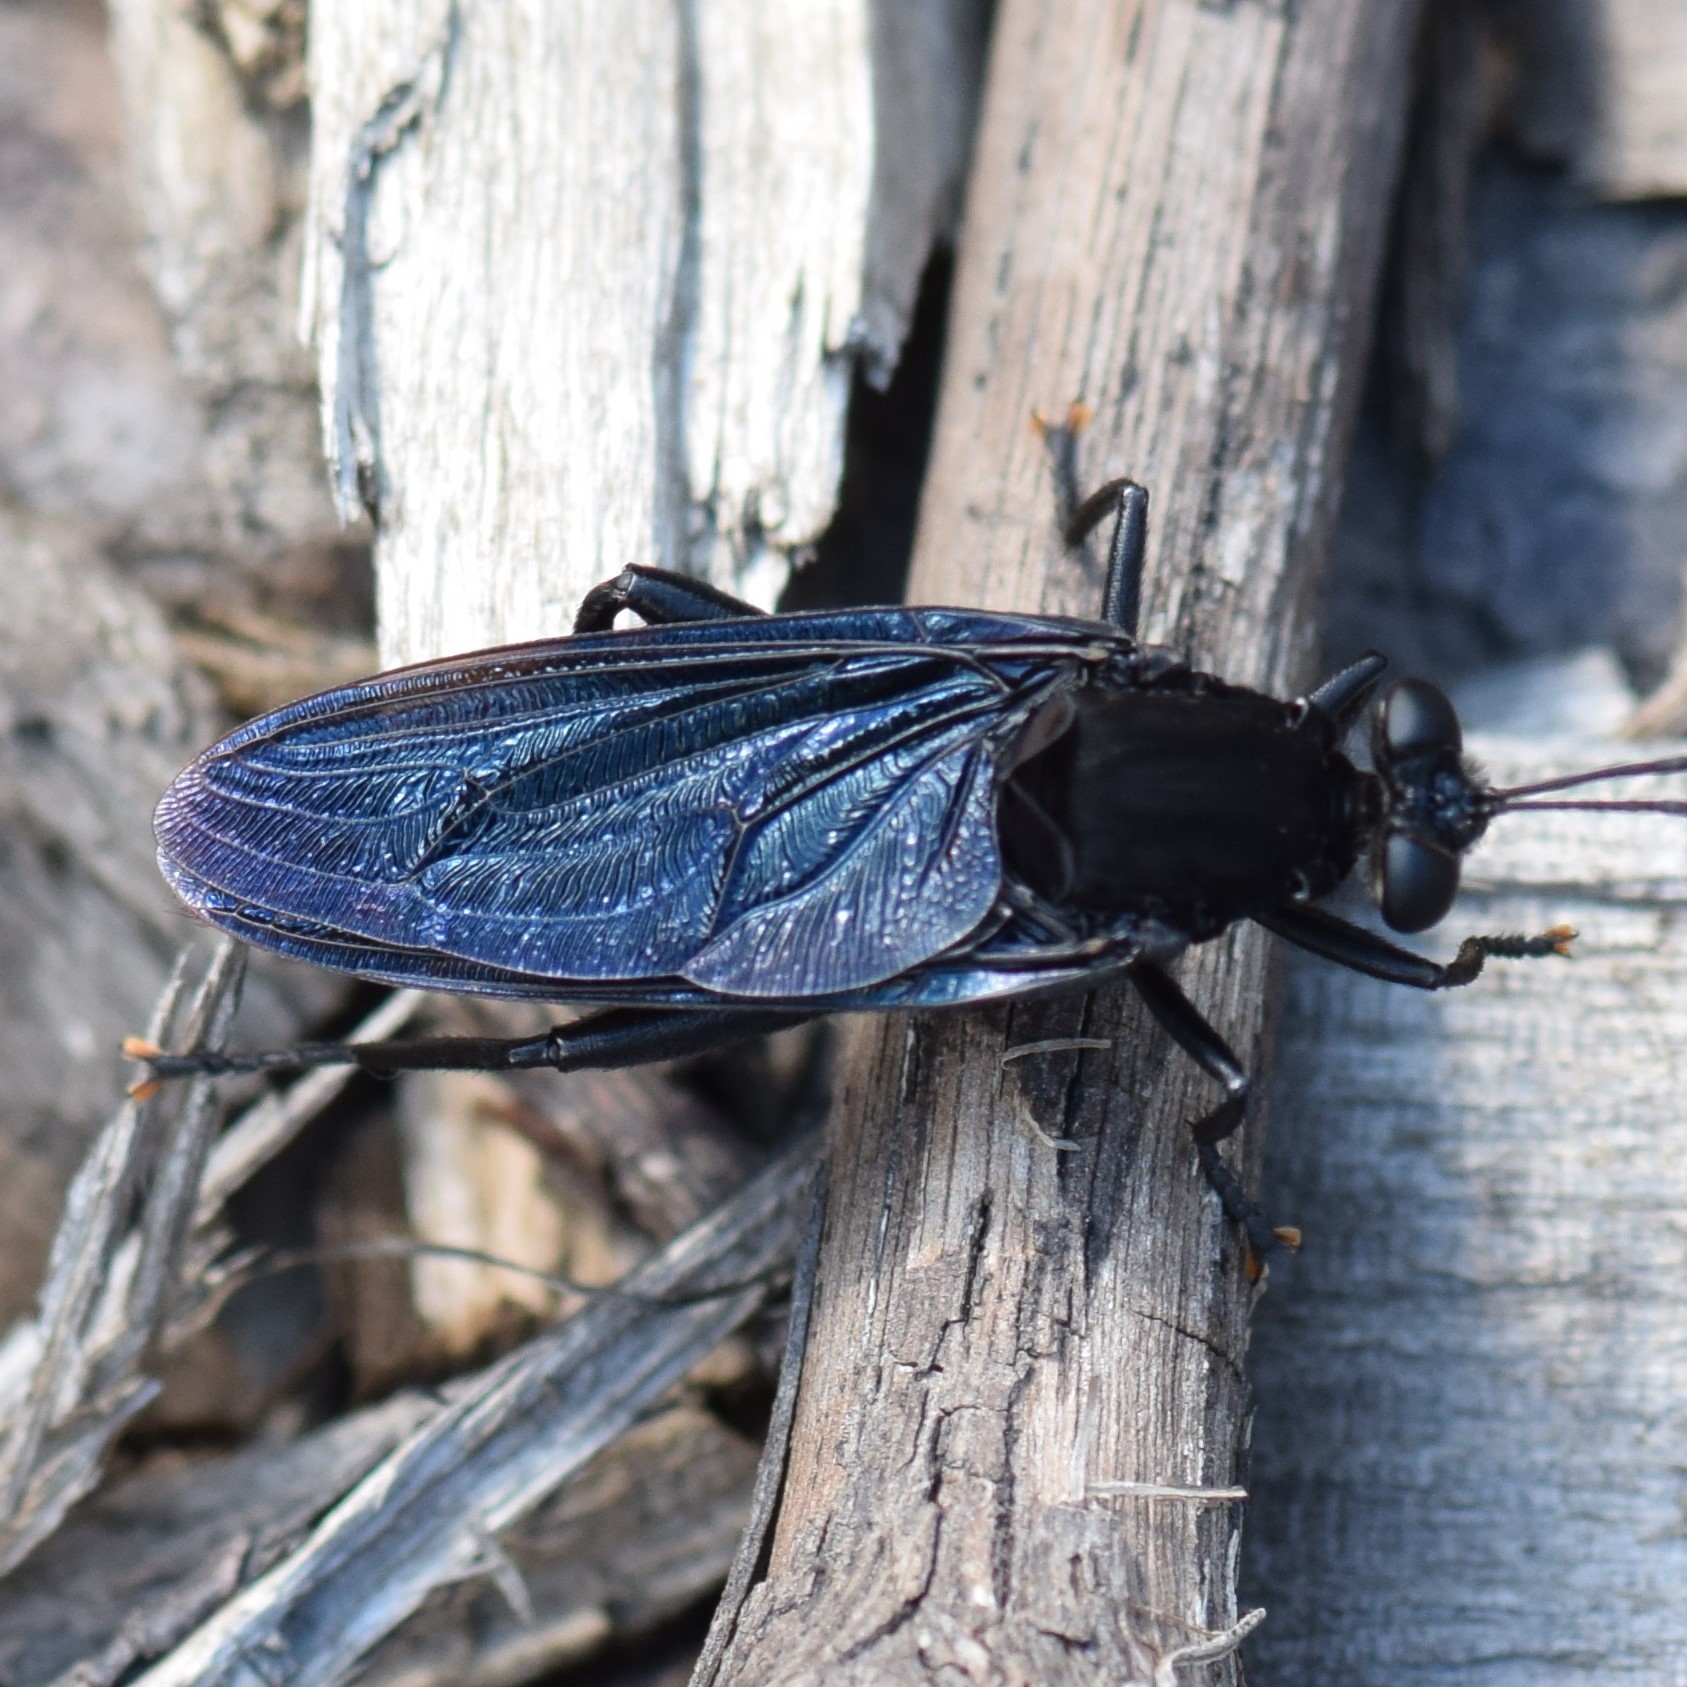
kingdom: Animalia
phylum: Arthropoda
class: Insecta
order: Diptera
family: Mydidae
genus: Mydas
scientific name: Mydas clavatus
